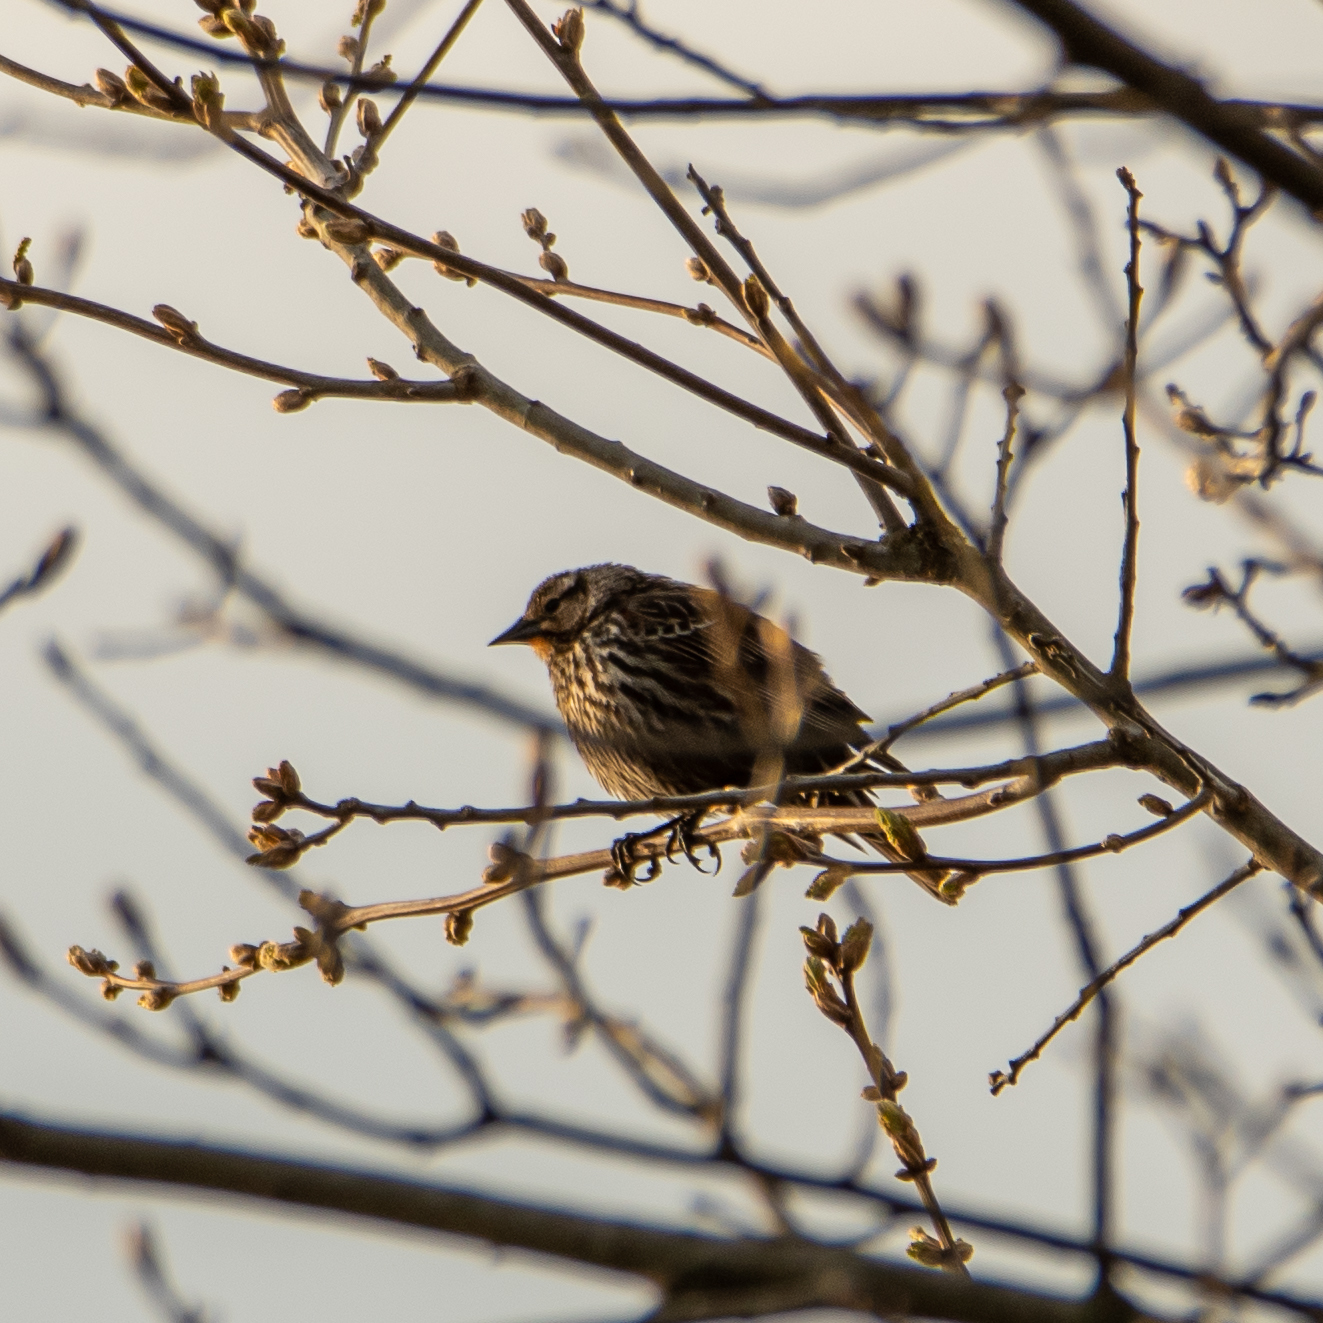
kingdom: Animalia
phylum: Chordata
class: Aves
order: Passeriformes
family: Icteridae
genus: Agelaius
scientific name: Agelaius phoeniceus
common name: Red-winged blackbird
